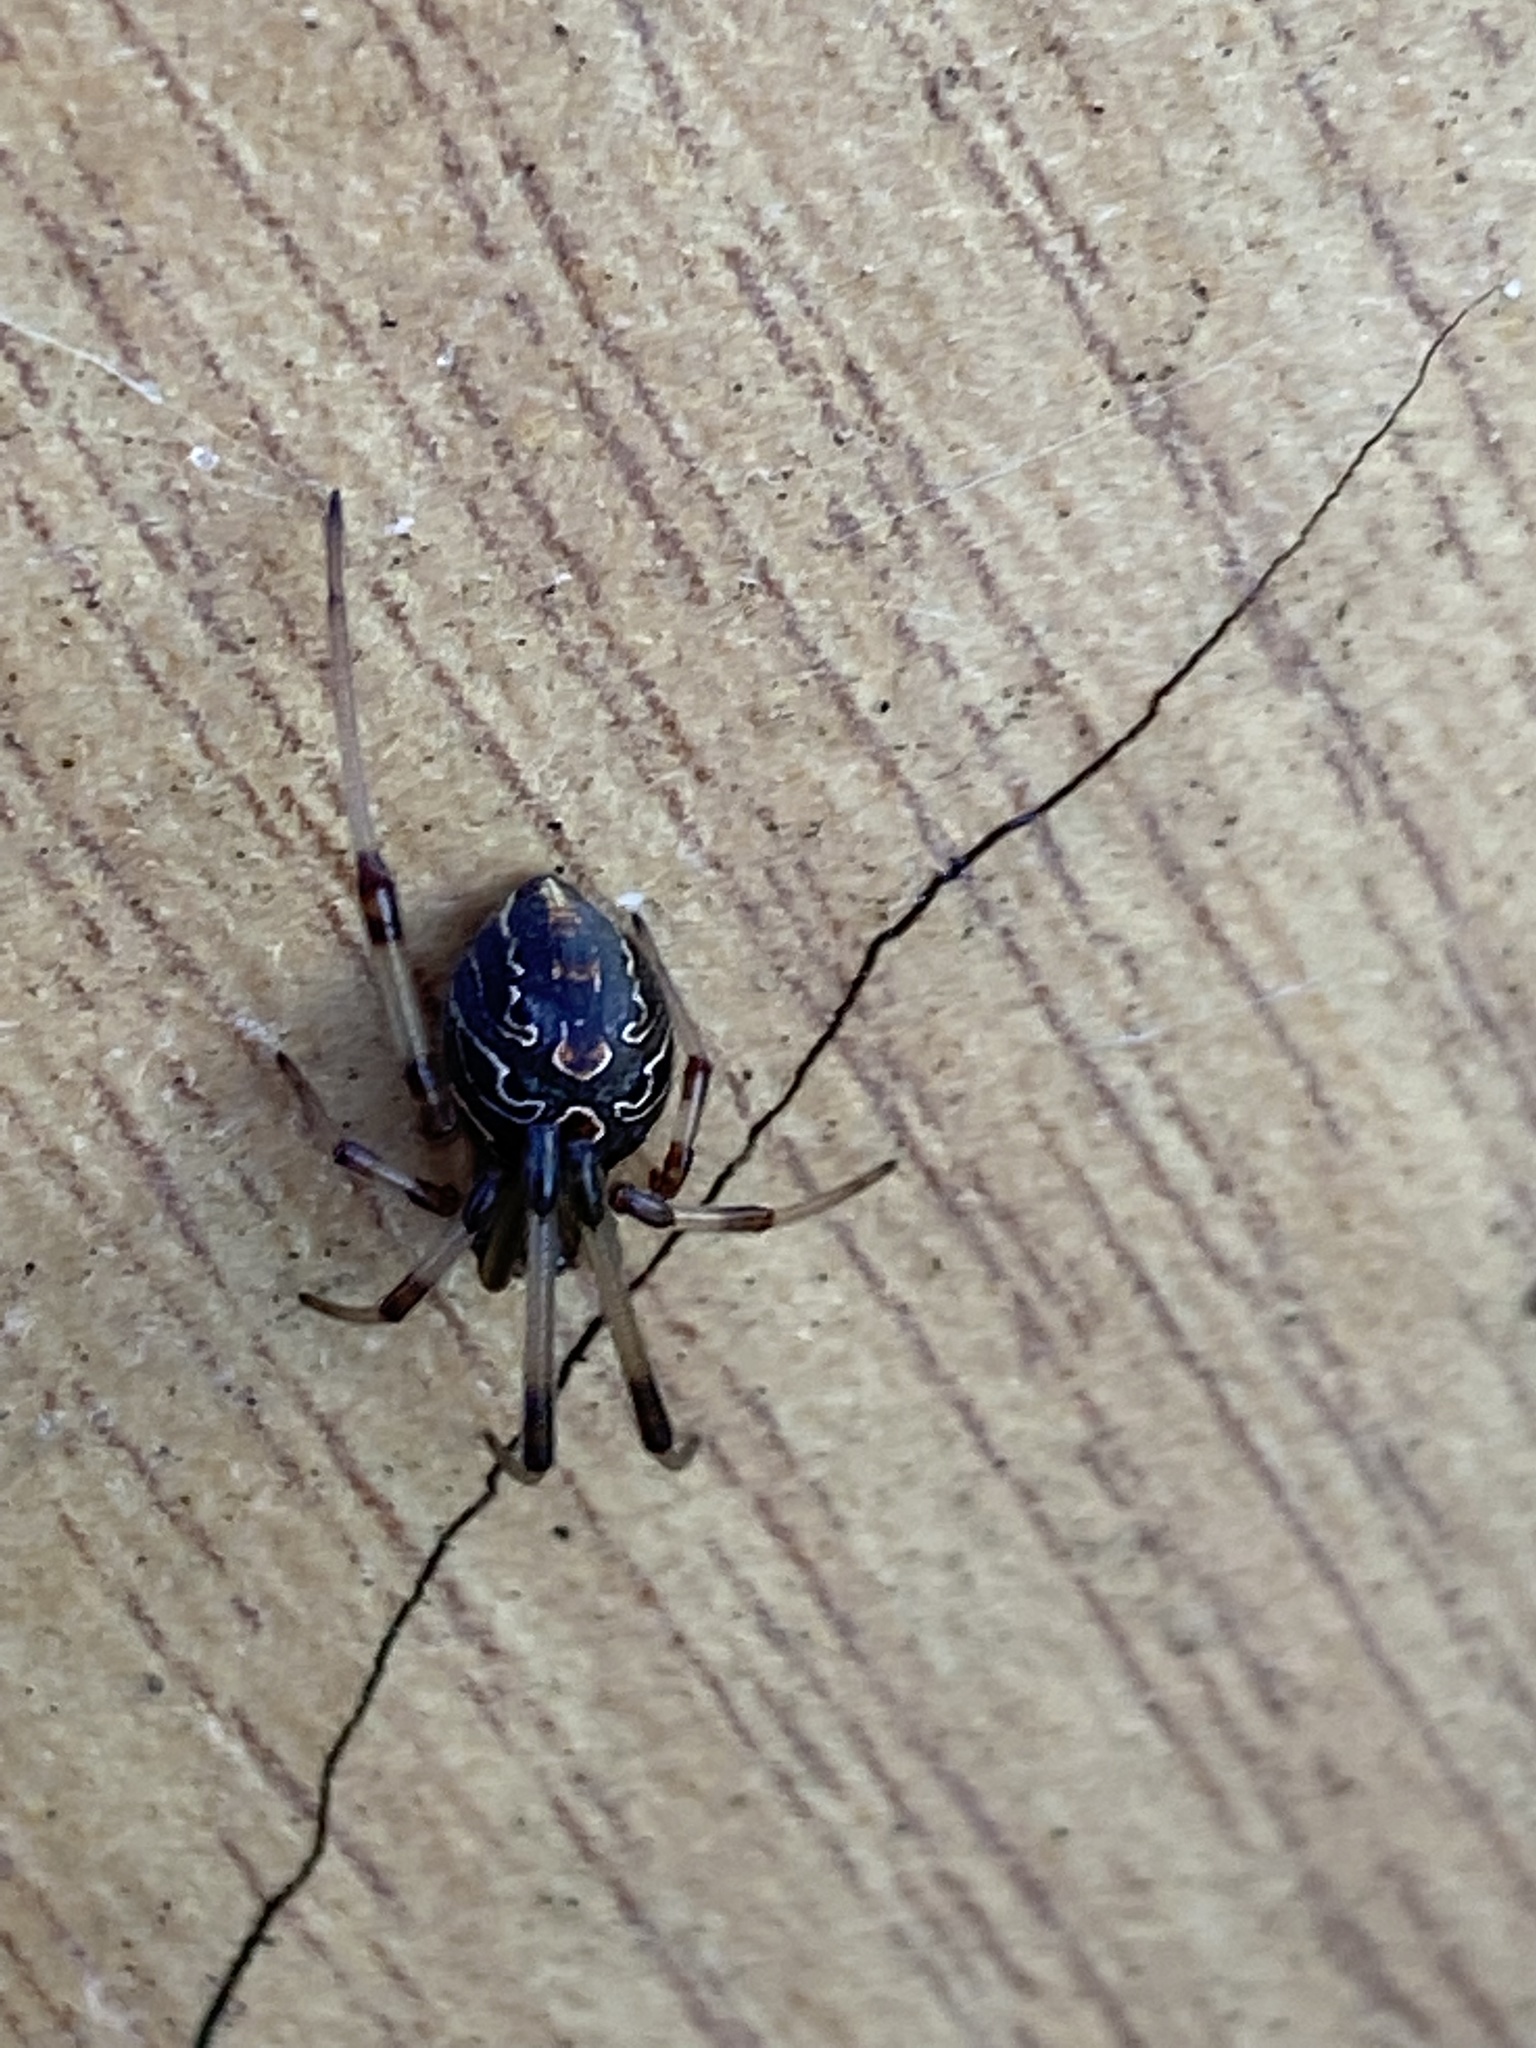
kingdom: Animalia
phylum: Arthropoda
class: Arachnida
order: Araneae
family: Theridiidae
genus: Latrodectus
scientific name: Latrodectus geometricus
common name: Brown widow spider
